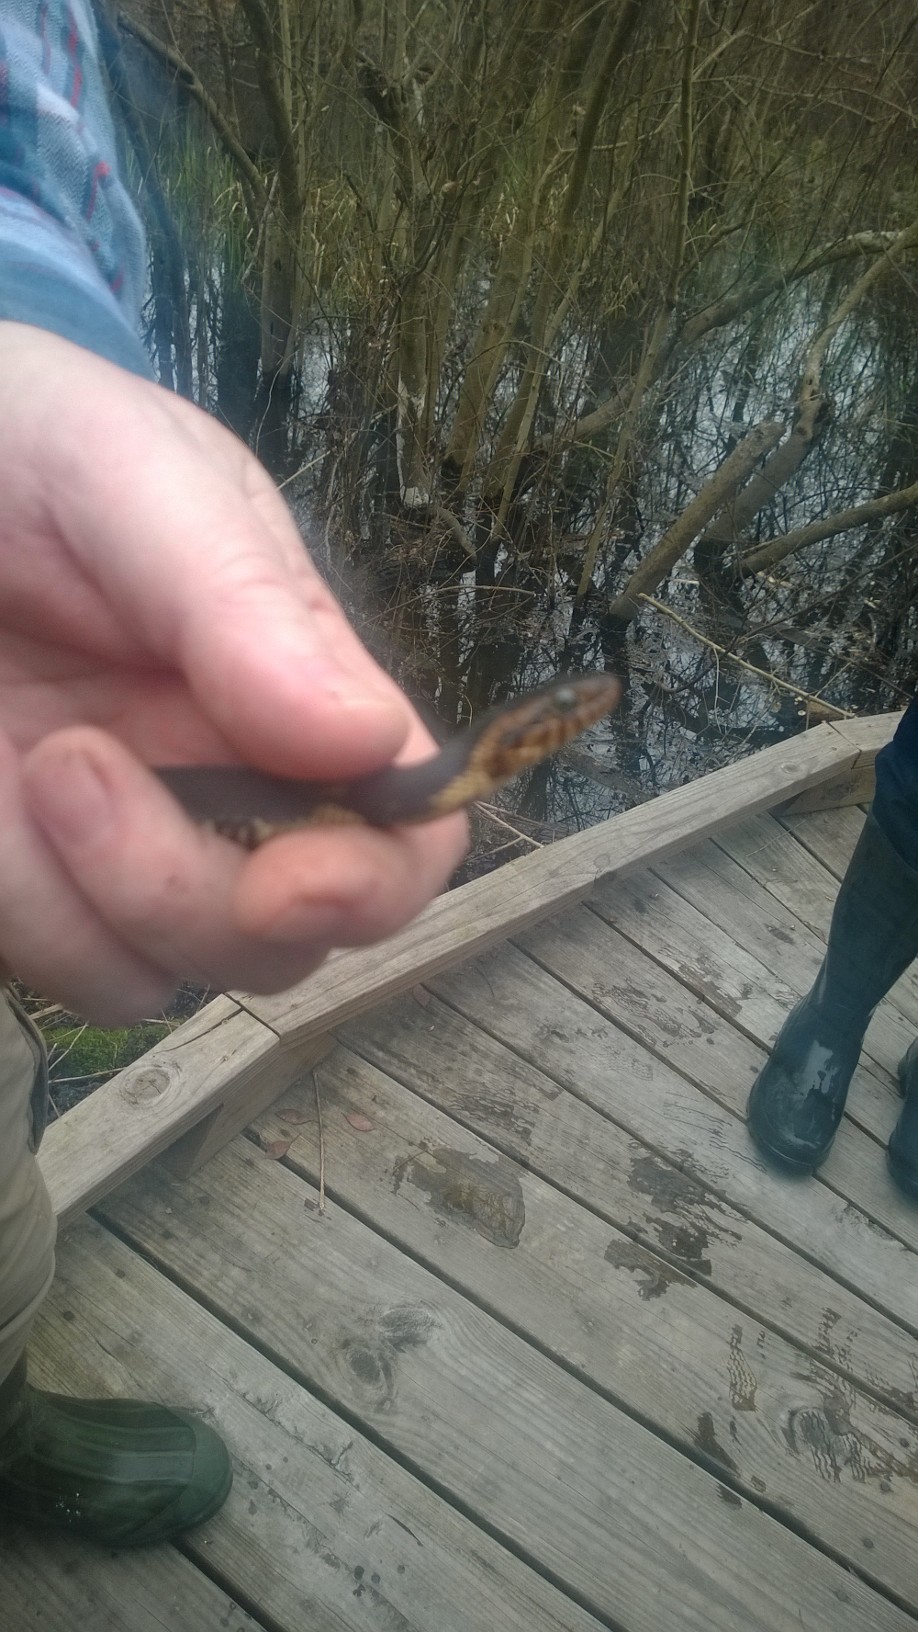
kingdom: Animalia
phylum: Chordata
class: Squamata
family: Colubridae
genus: Nerodia
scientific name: Nerodia fasciata
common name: Southern water snake
